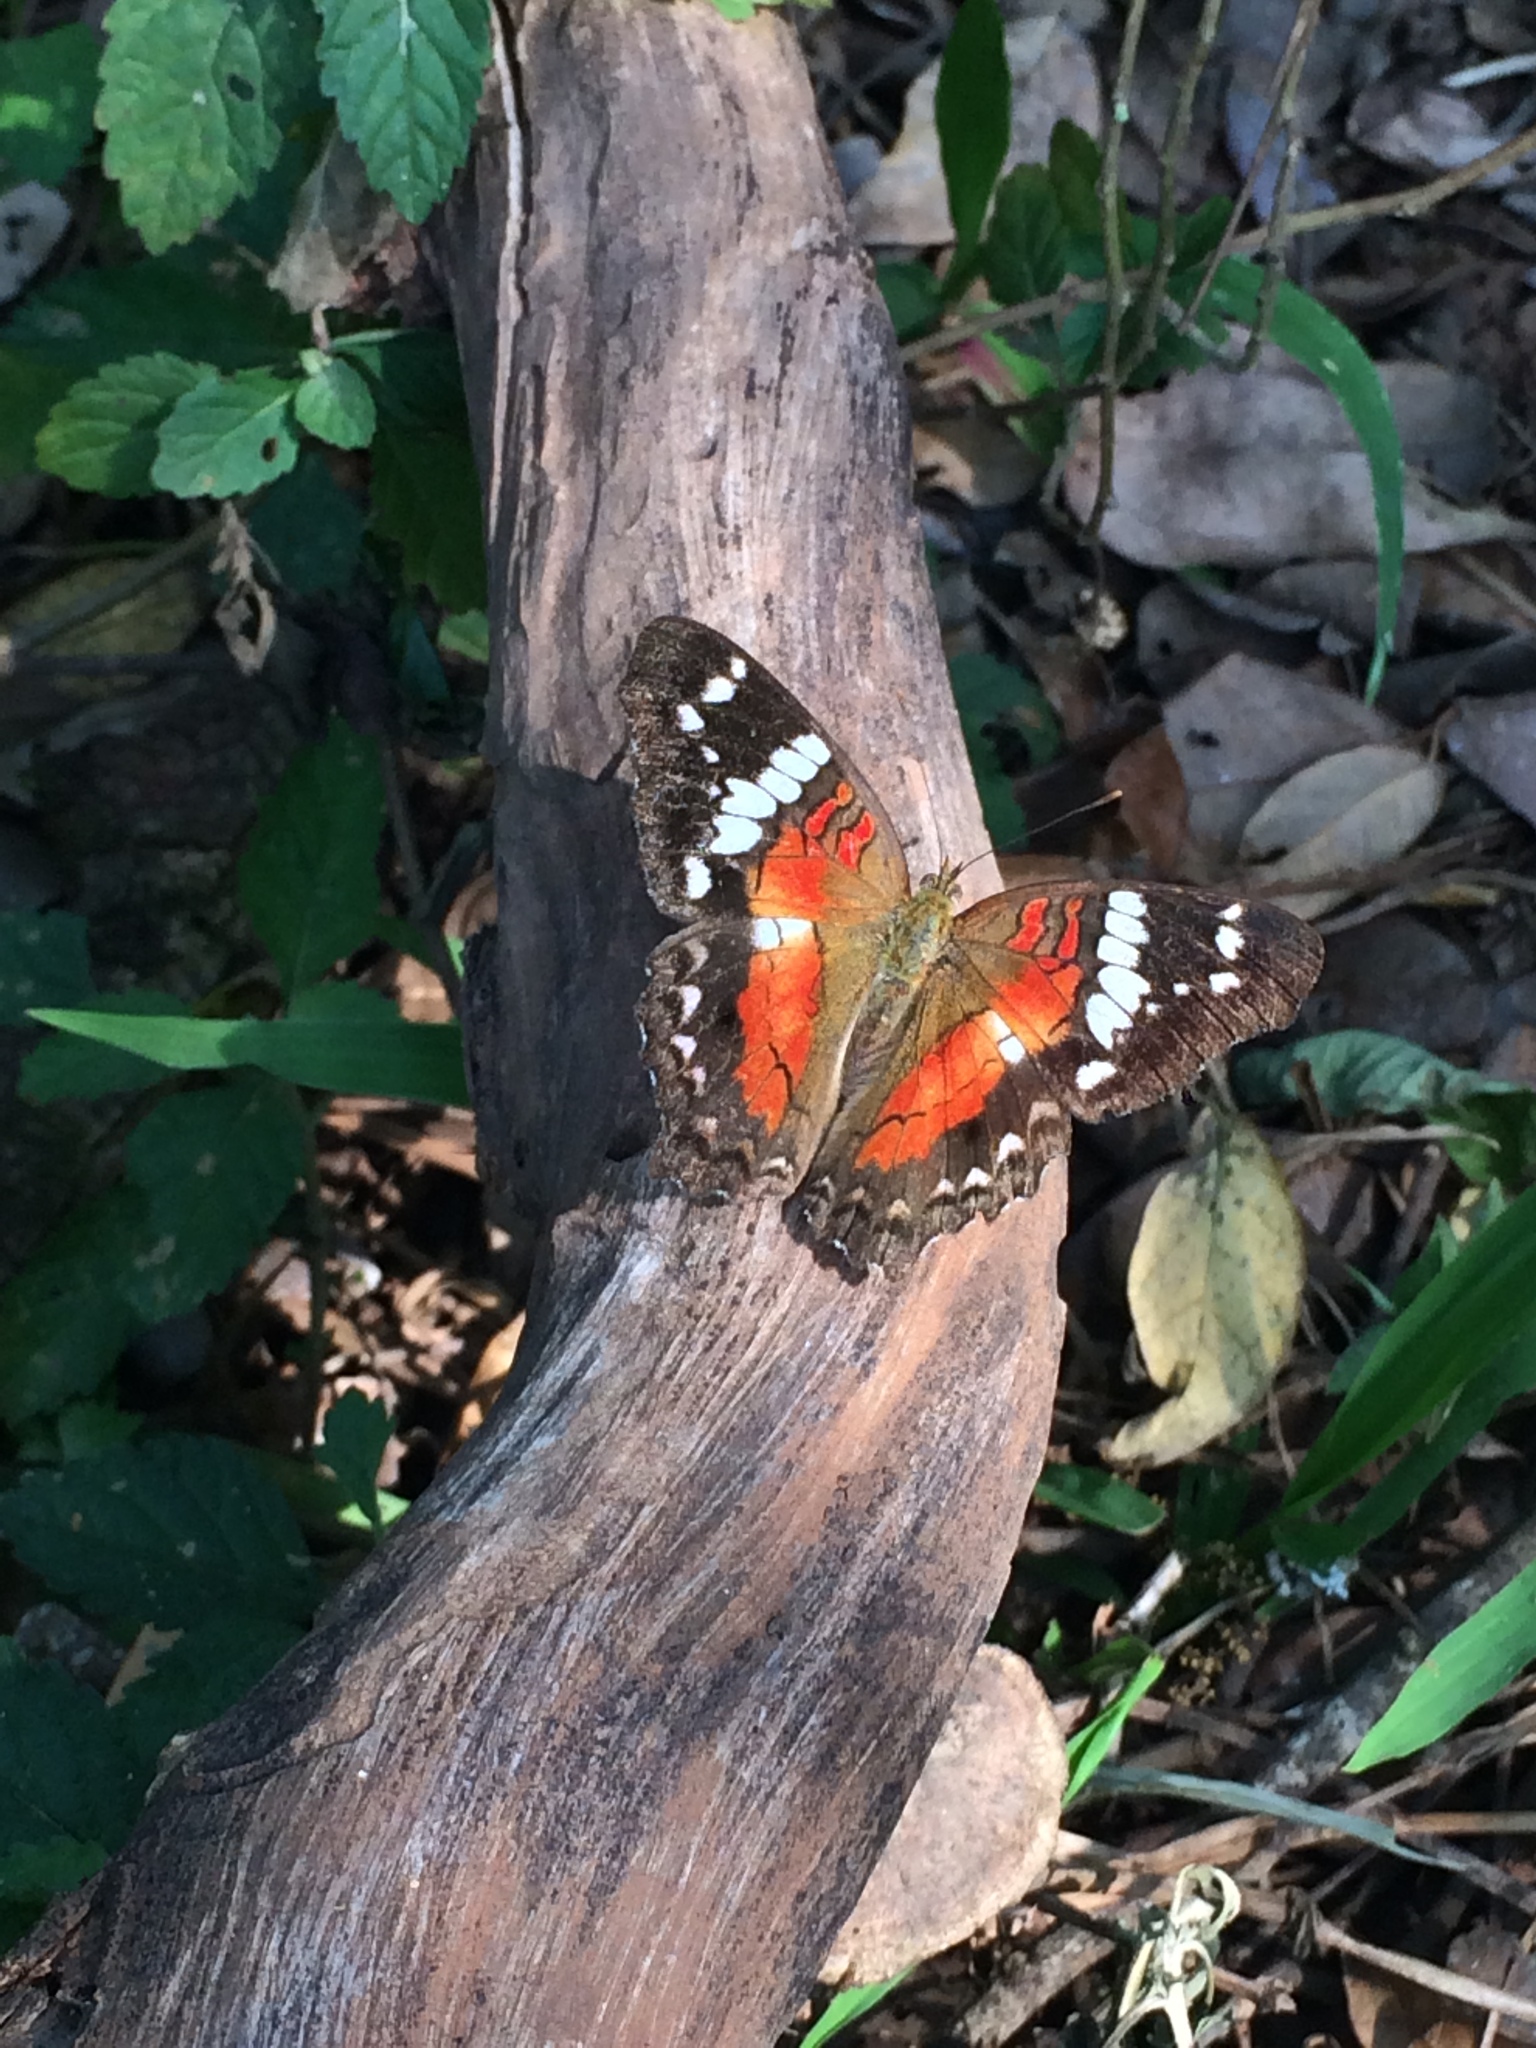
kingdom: Animalia
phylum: Arthropoda
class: Insecta
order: Lepidoptera
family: Nymphalidae
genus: Anartia
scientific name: Anartia amathea
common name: Red peacock
